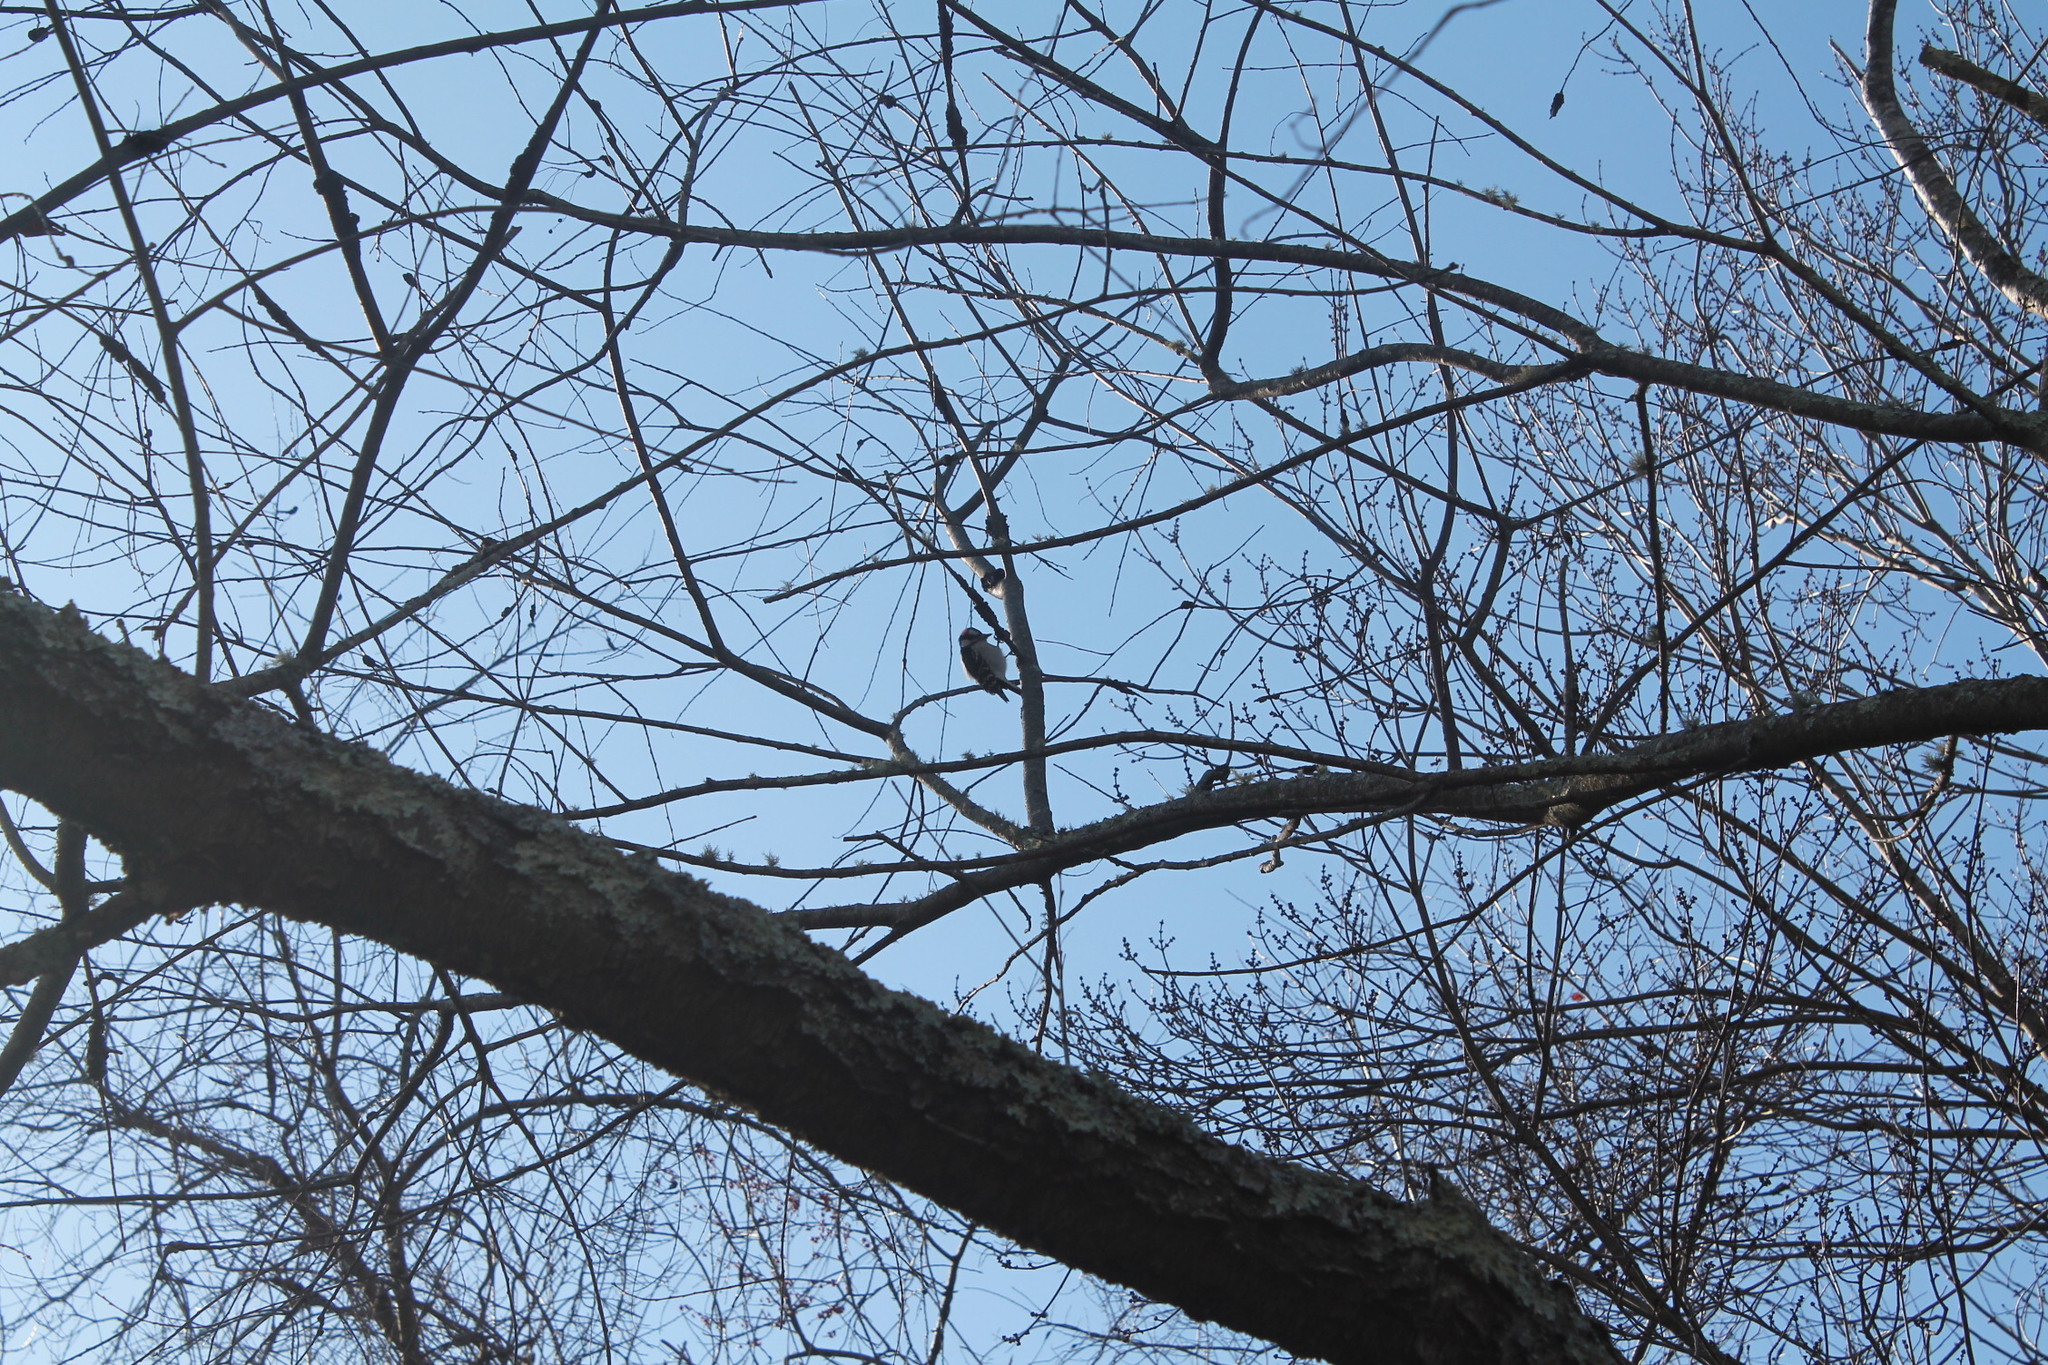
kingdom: Animalia
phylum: Chordata
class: Aves
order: Piciformes
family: Picidae
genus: Dryobates
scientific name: Dryobates pubescens
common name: Downy woodpecker
